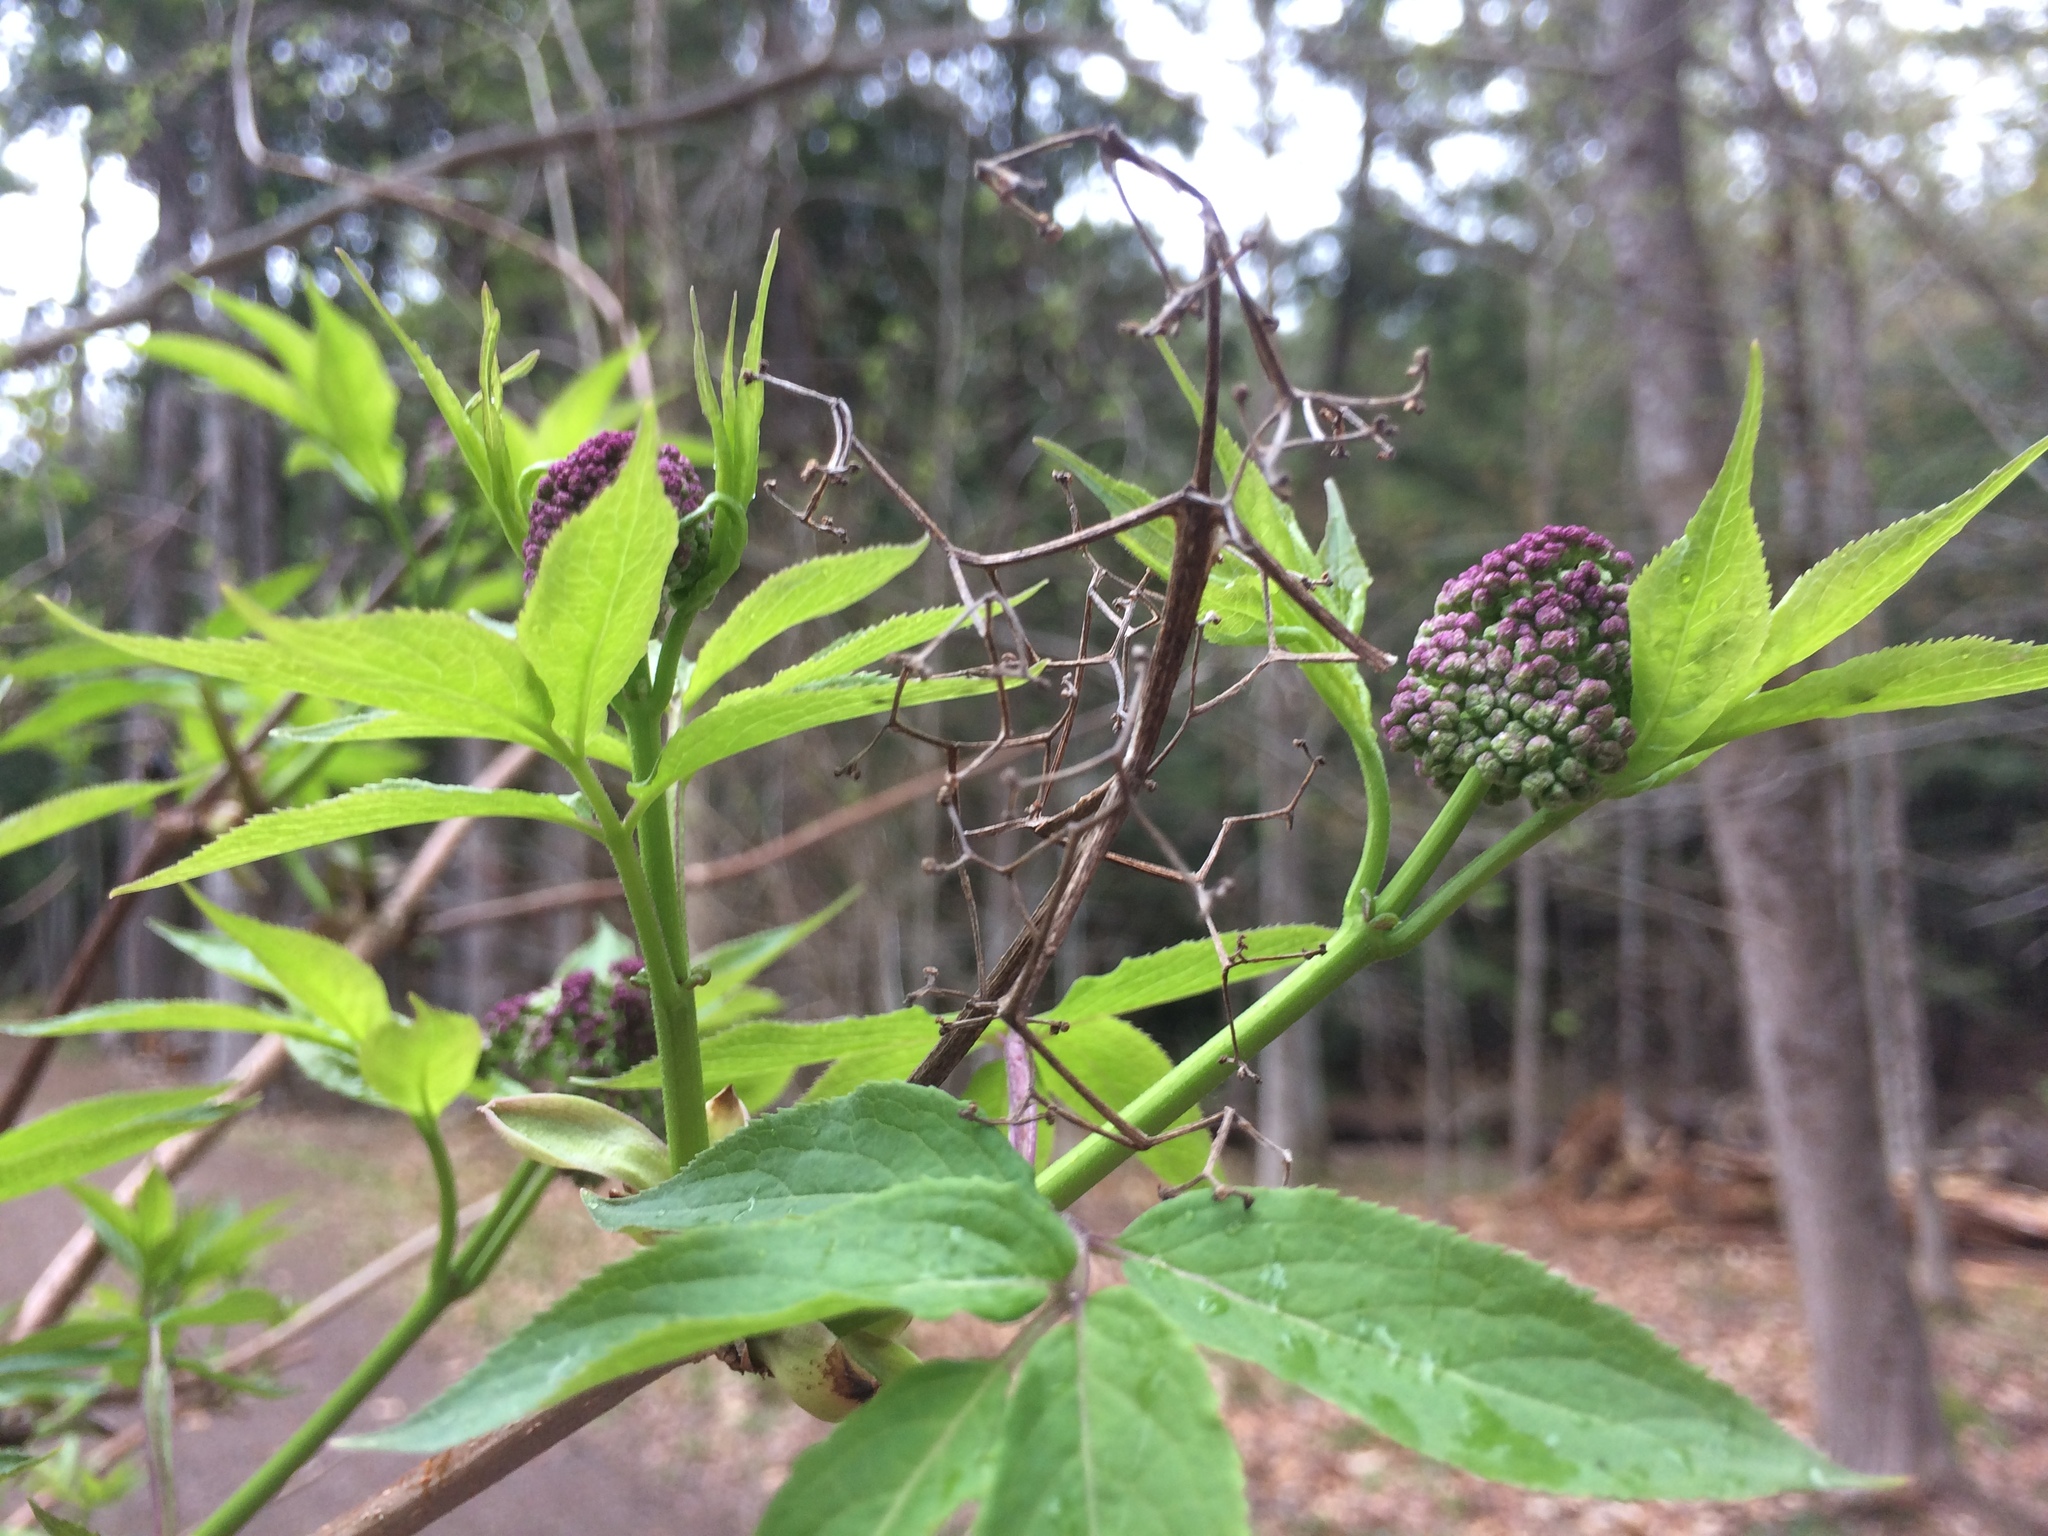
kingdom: Plantae
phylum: Tracheophyta
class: Magnoliopsida
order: Dipsacales
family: Viburnaceae
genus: Sambucus
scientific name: Sambucus racemosa
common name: Red-berried elder
